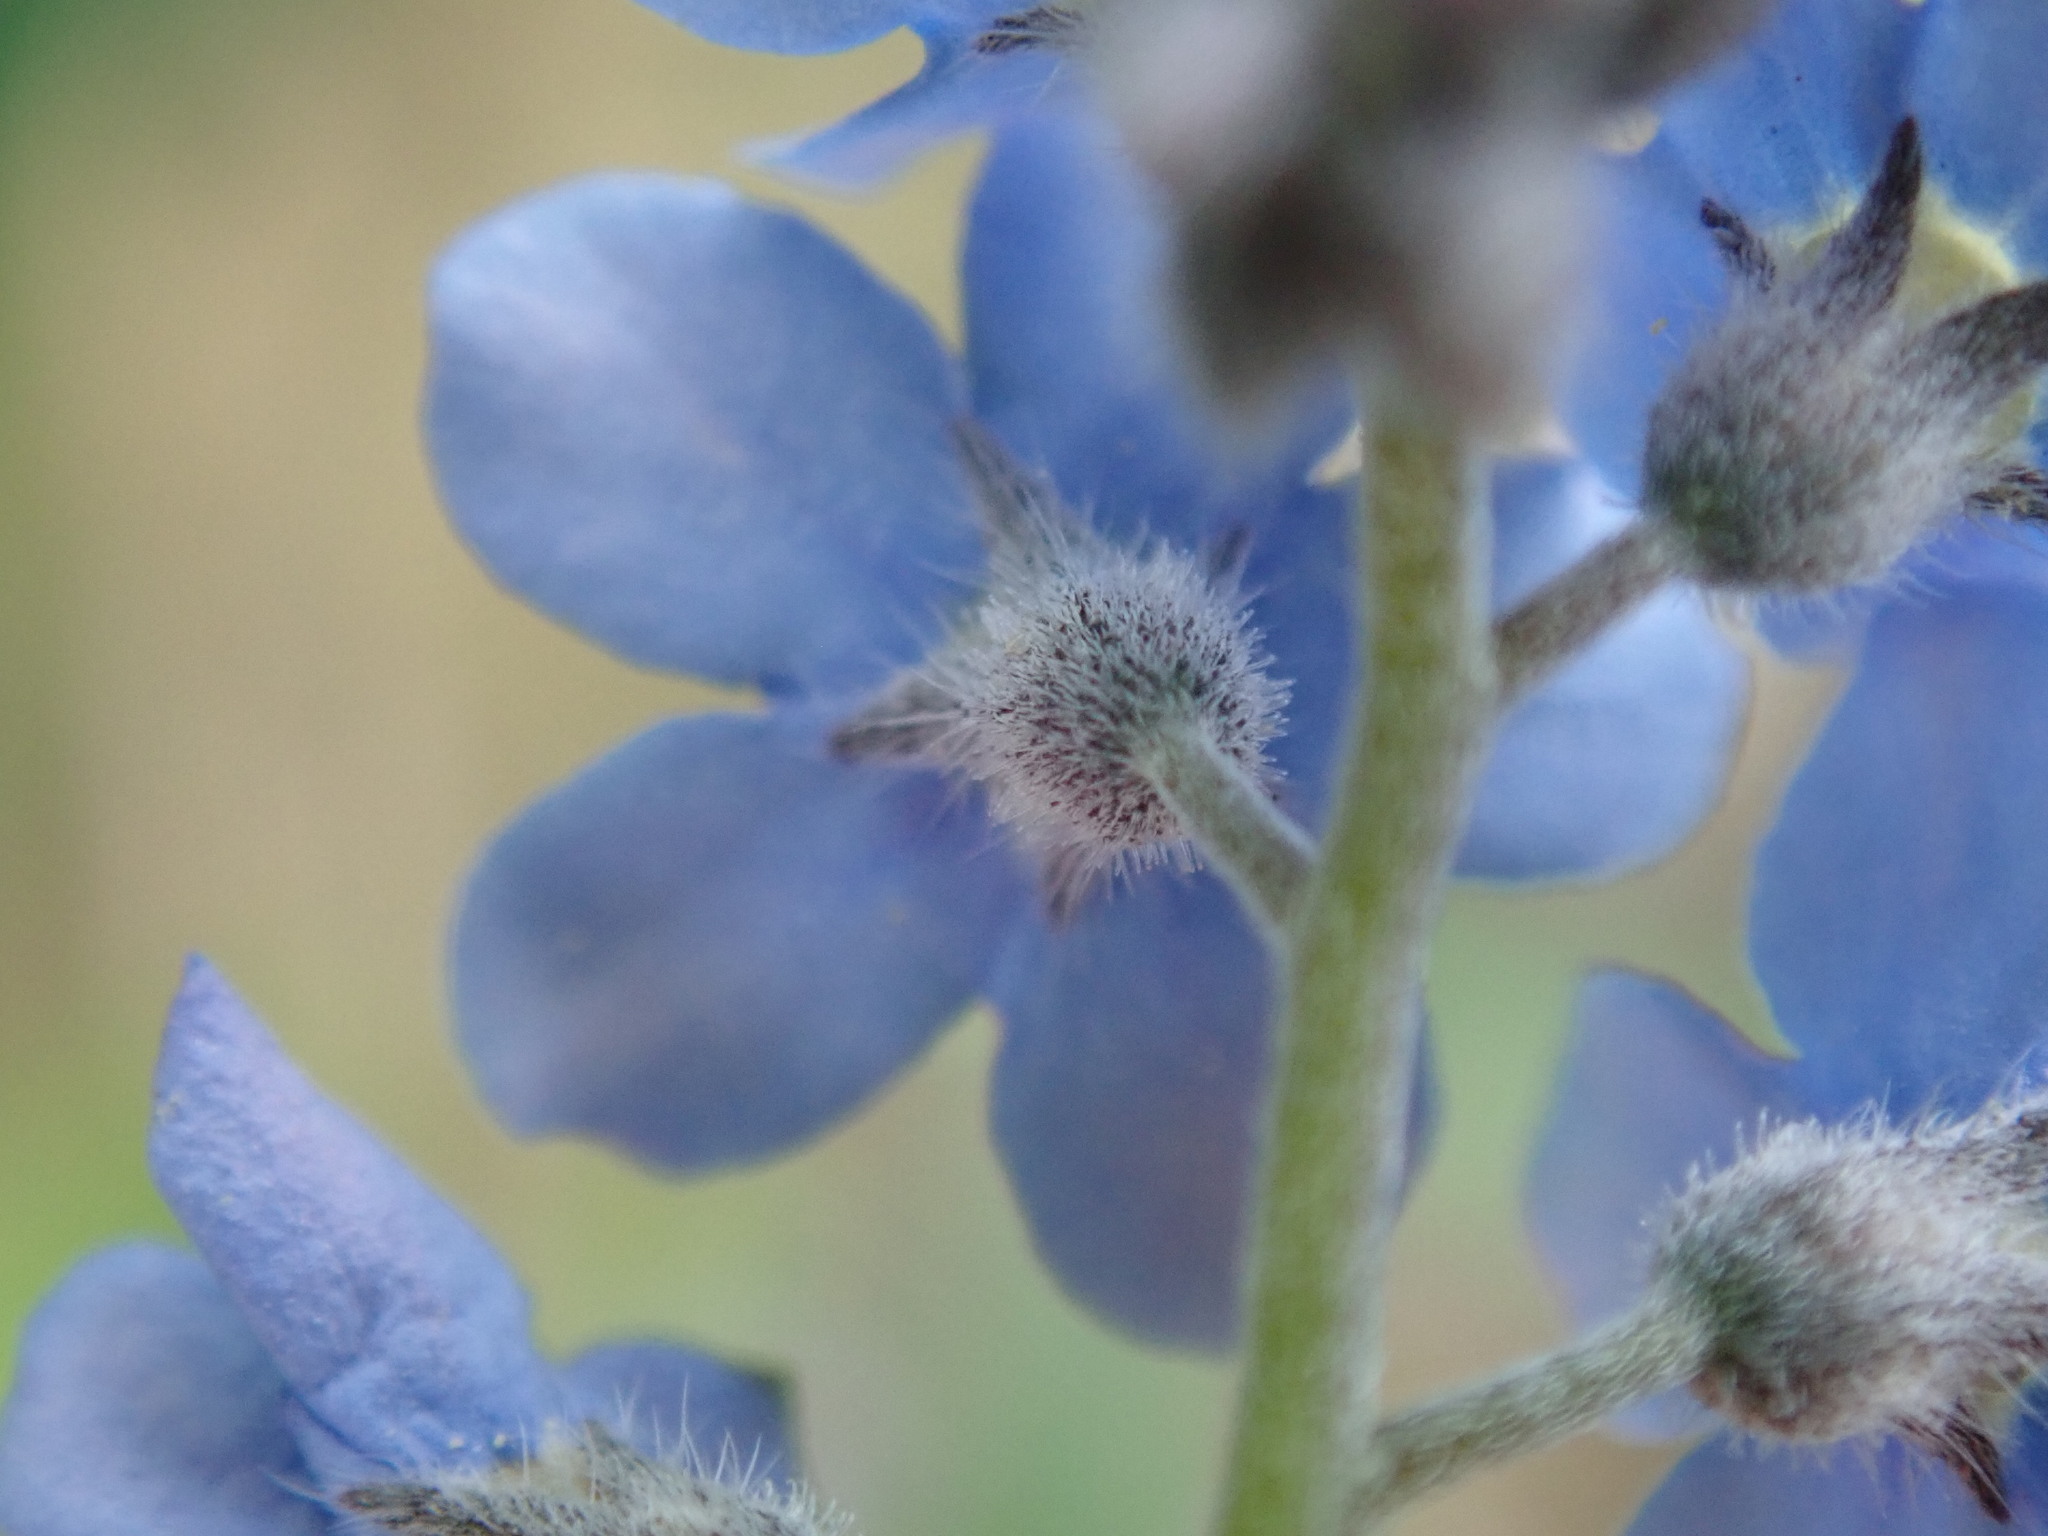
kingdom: Plantae
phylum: Tracheophyta
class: Magnoliopsida
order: Boraginales
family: Boraginaceae
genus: Myosotis
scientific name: Myosotis sylvatica
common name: Wood forget-me-not
